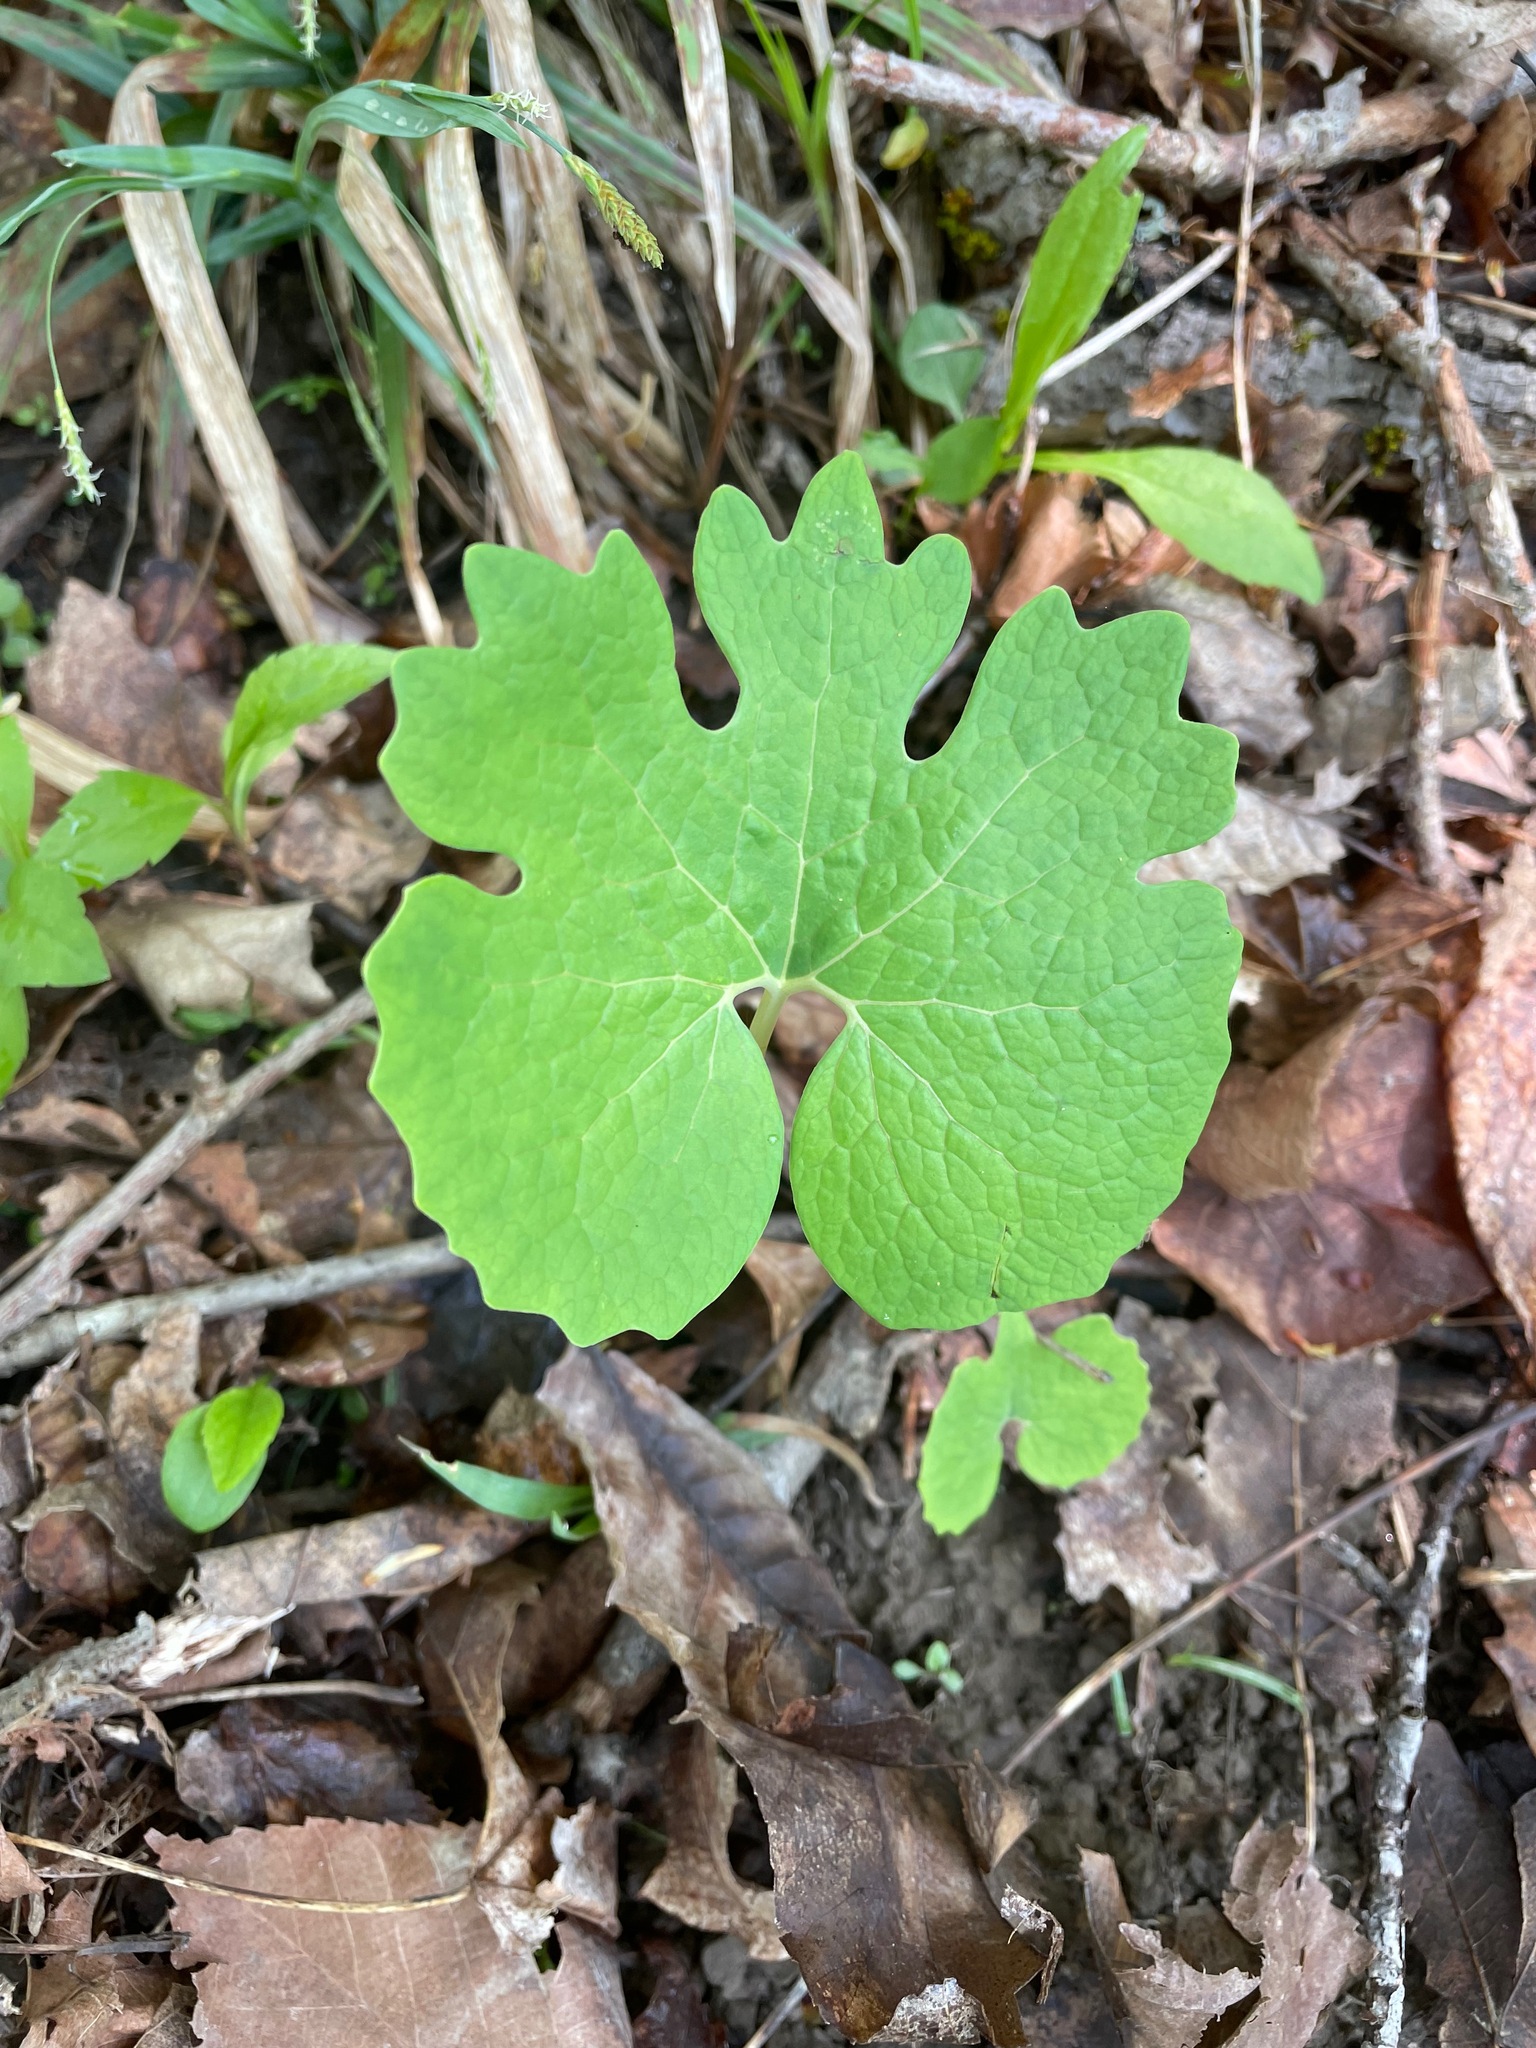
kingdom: Plantae
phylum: Tracheophyta
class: Magnoliopsida
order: Ranunculales
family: Papaveraceae
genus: Sanguinaria
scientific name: Sanguinaria canadensis
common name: Bloodroot
